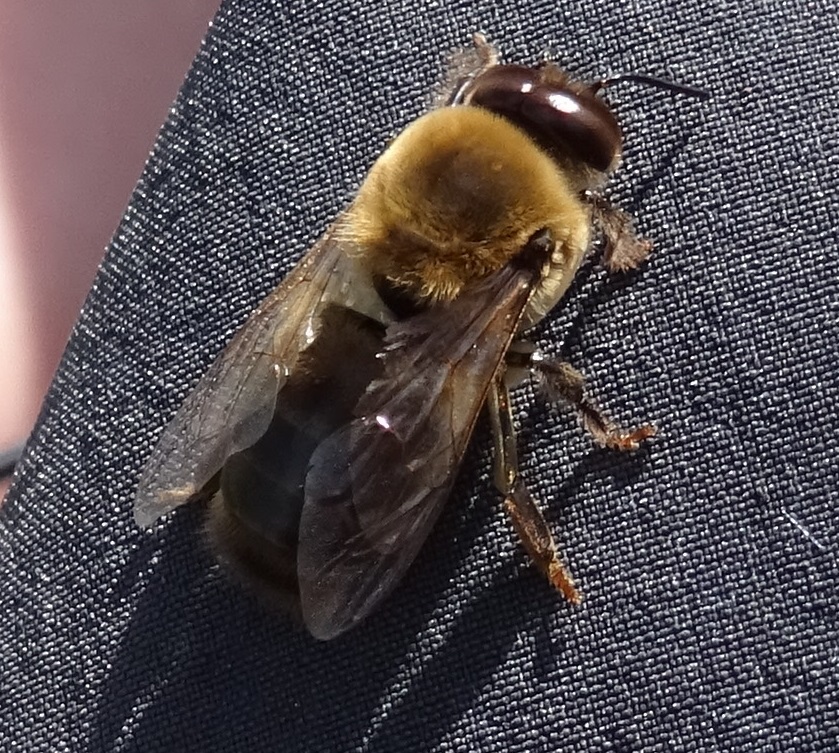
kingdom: Animalia
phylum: Arthropoda
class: Insecta
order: Hymenoptera
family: Apidae
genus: Apis
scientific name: Apis mellifera
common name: Honey bee
